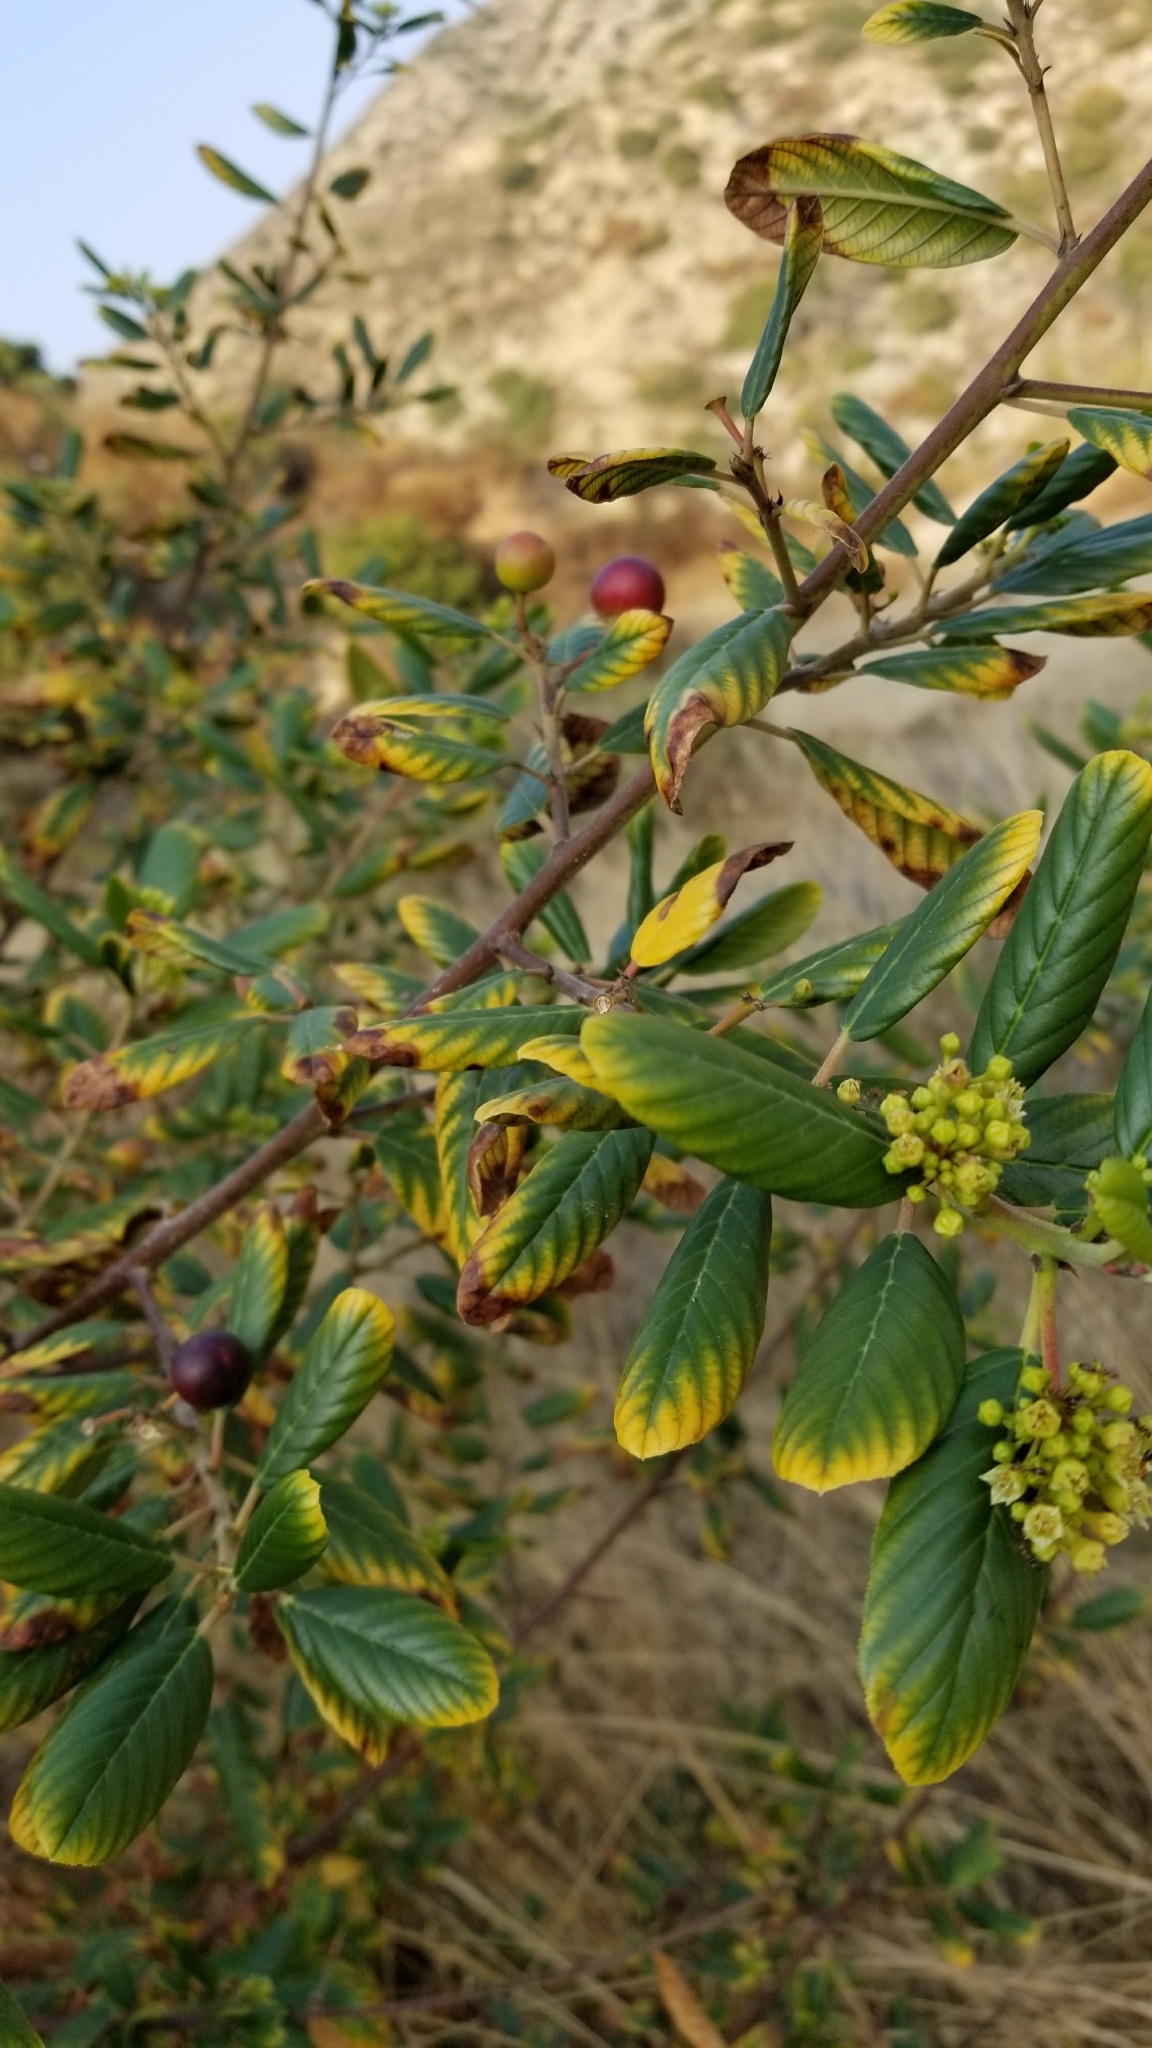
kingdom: Plantae
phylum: Tracheophyta
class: Magnoliopsida
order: Rosales
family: Rhamnaceae
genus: Frangula
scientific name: Frangula californica
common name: California buckthorn
